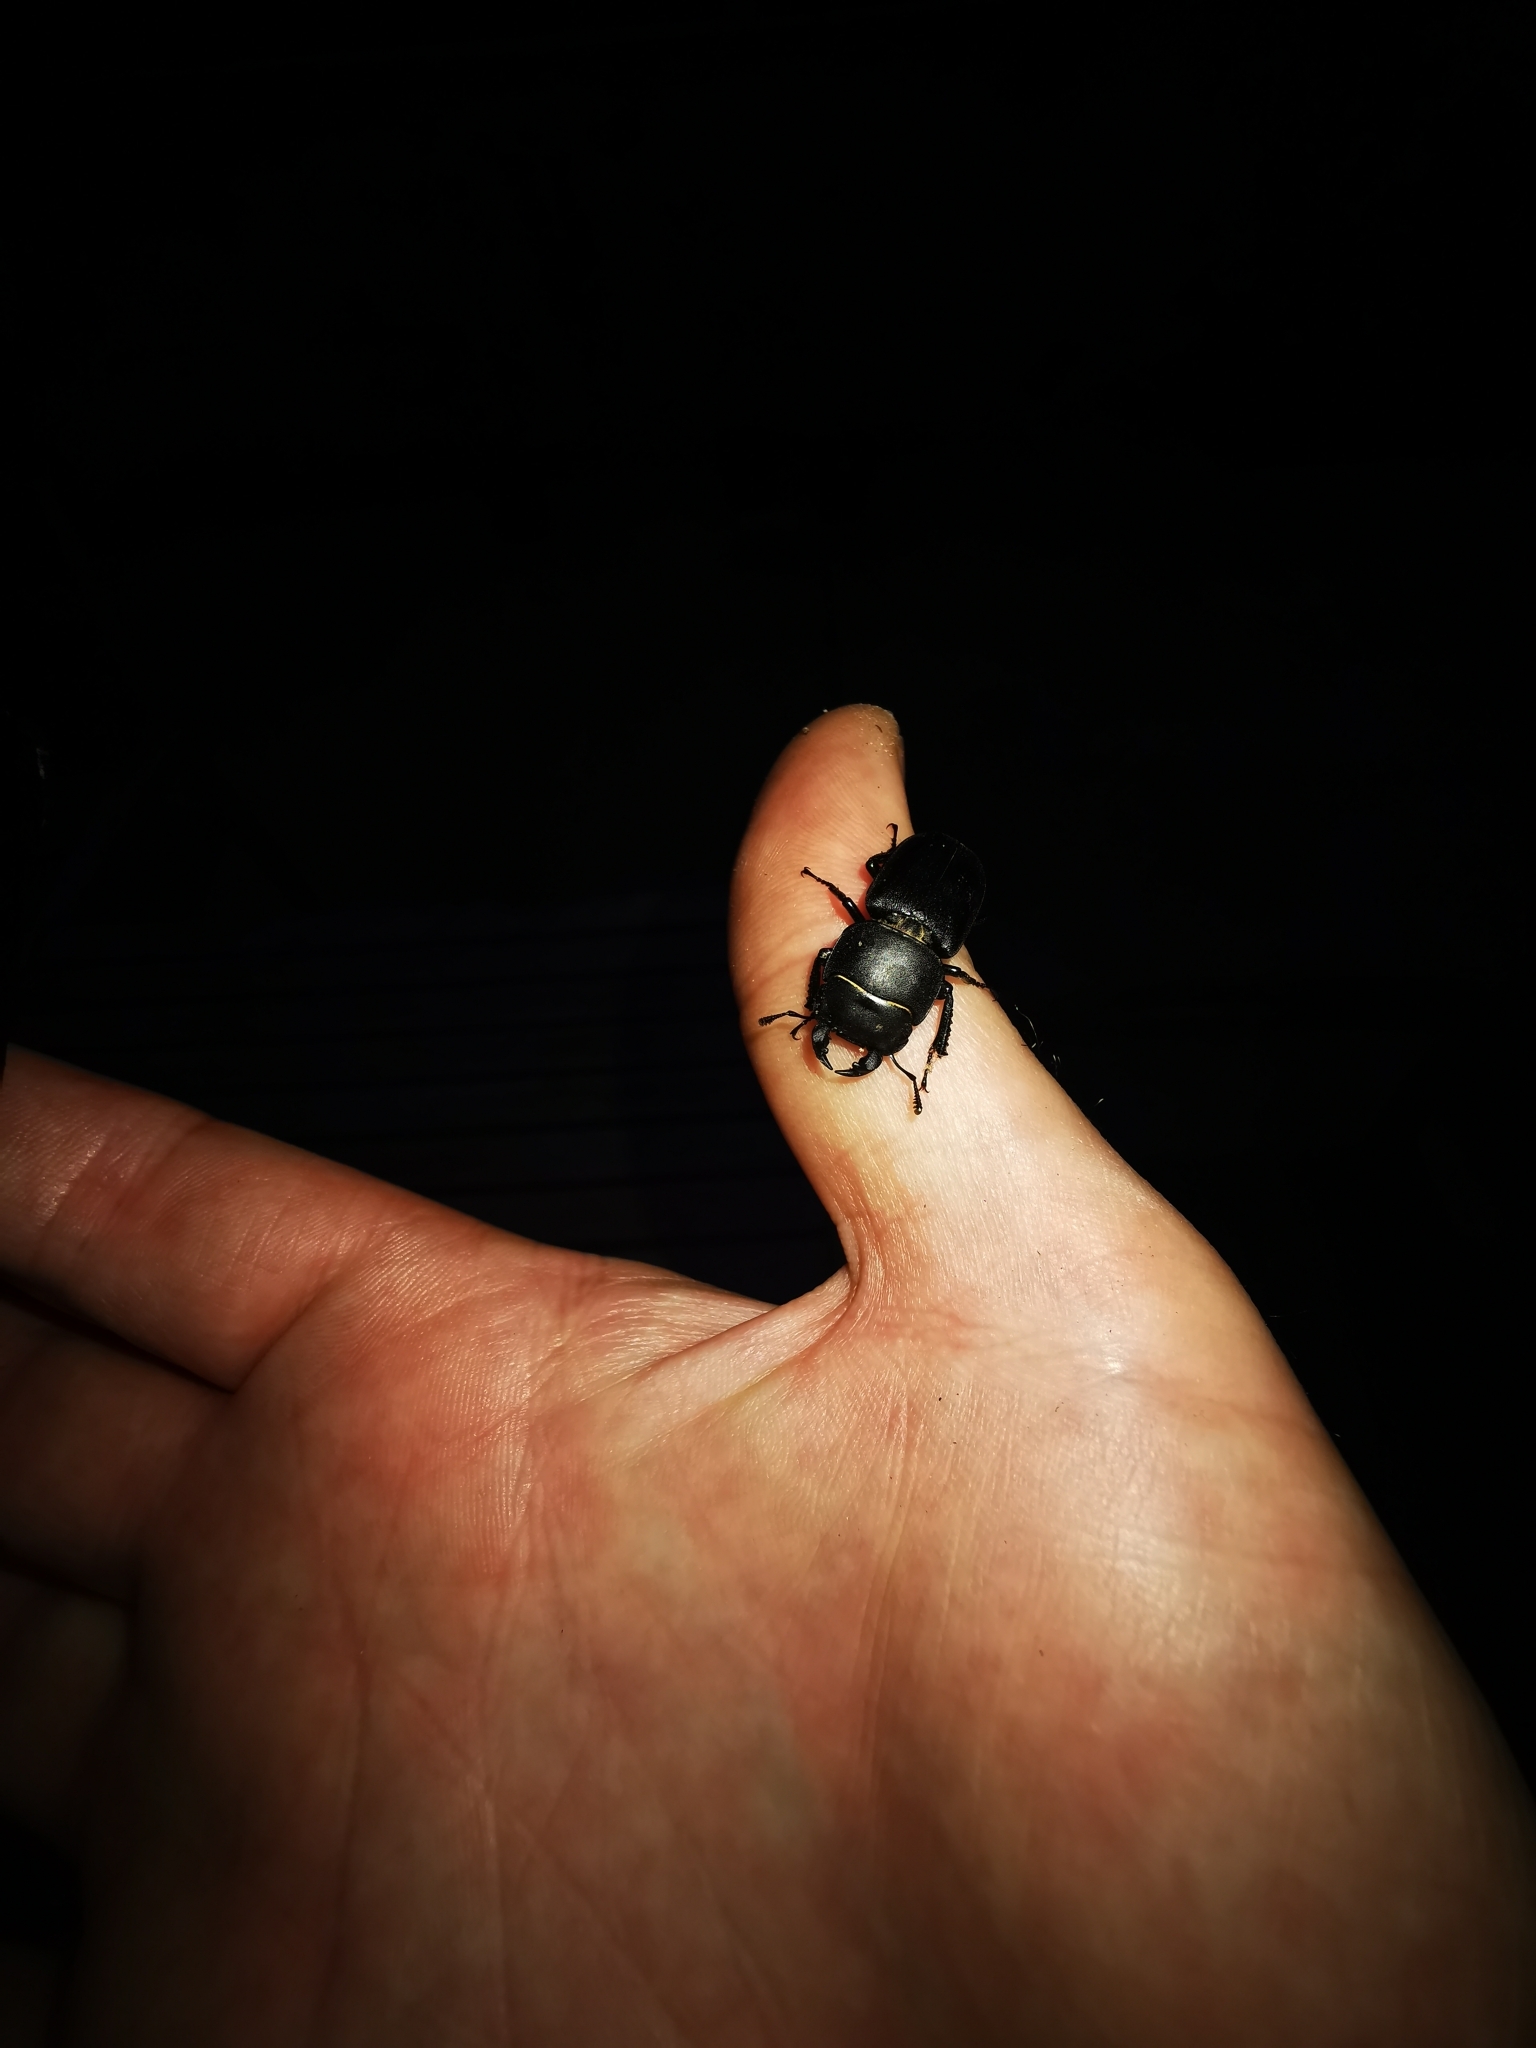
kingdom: Animalia
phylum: Arthropoda
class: Insecta
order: Coleoptera
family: Lucanidae
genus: Dorcus
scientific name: Dorcus parallelipipedus
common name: Lesser stag beetle
